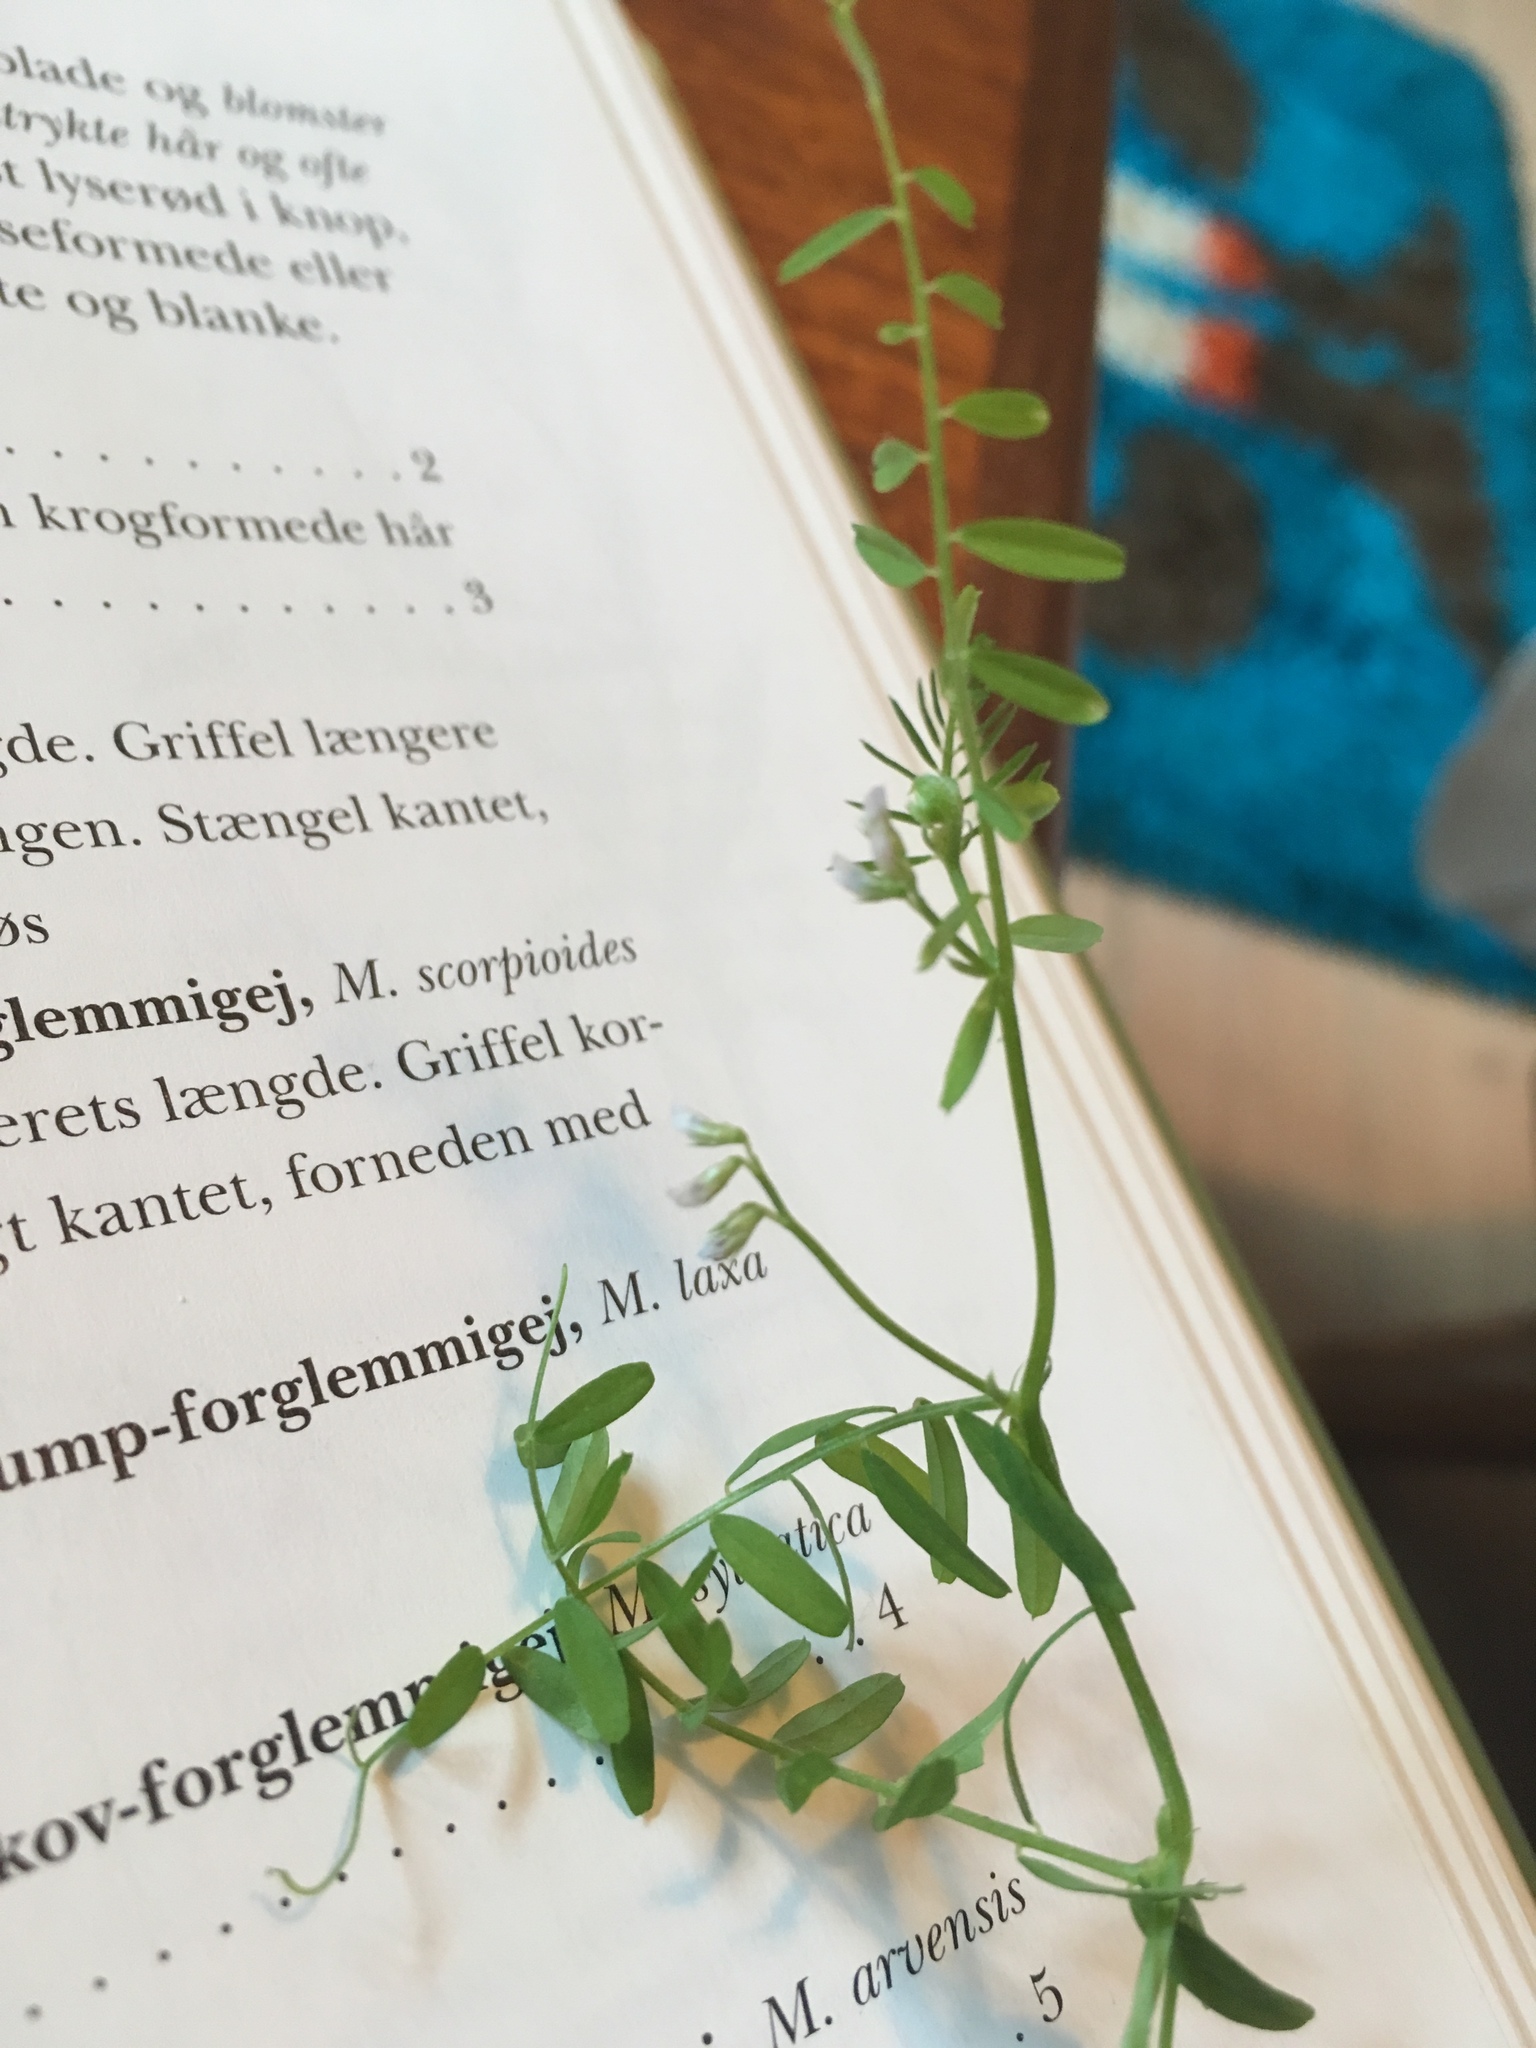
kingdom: Plantae
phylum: Tracheophyta
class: Magnoliopsida
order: Fabales
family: Fabaceae
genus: Vicia
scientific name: Vicia hirsuta
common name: Tiny vetch
